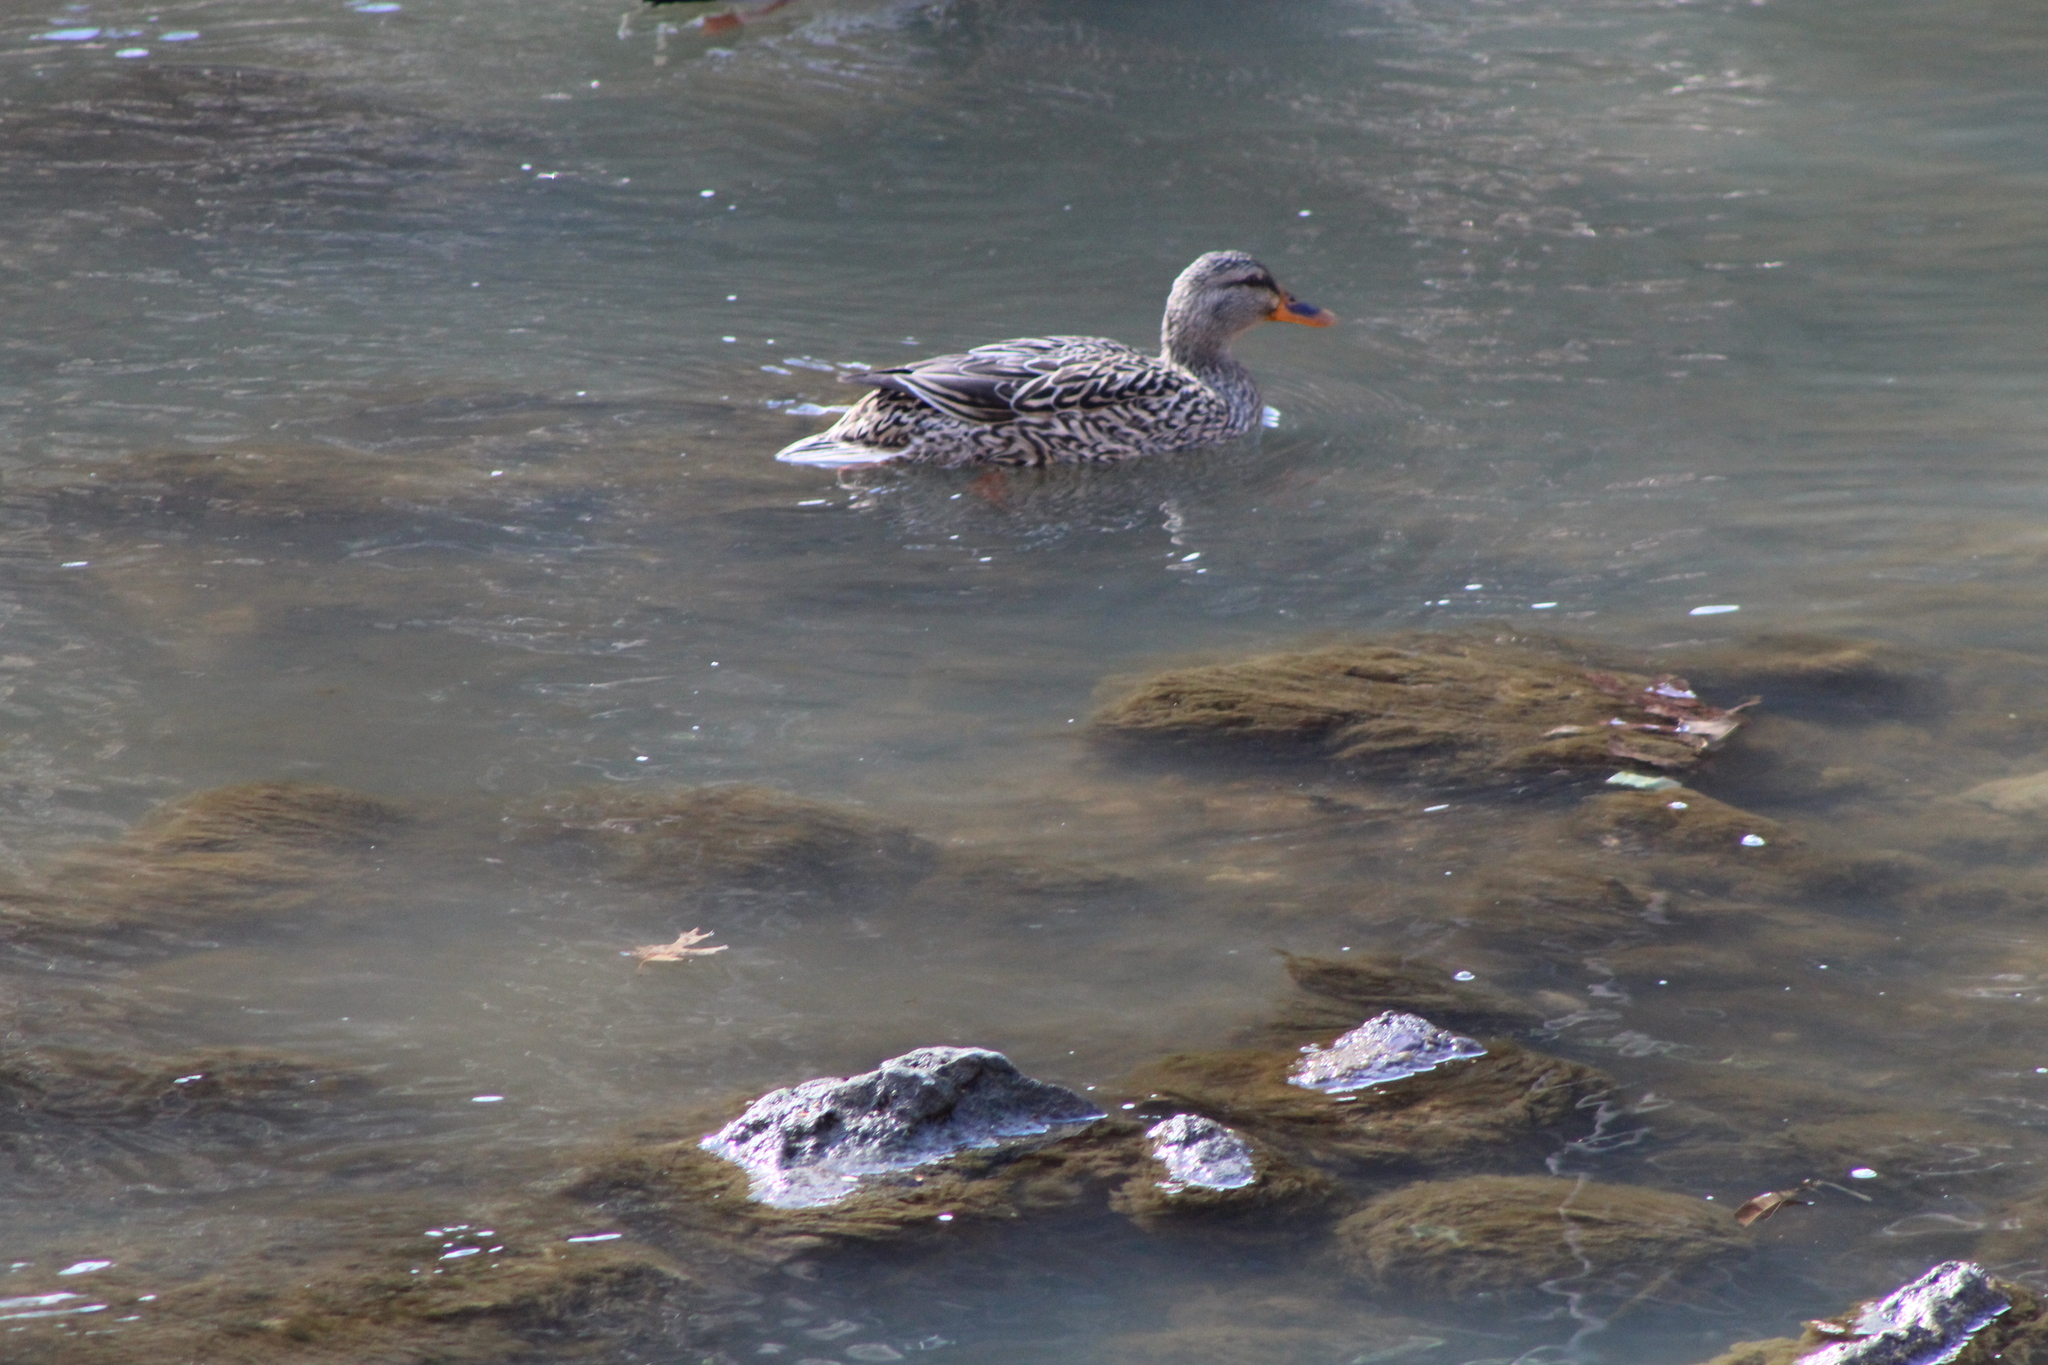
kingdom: Animalia
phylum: Chordata
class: Aves
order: Anseriformes
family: Anatidae
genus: Anas
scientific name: Anas platyrhynchos
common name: Mallard
